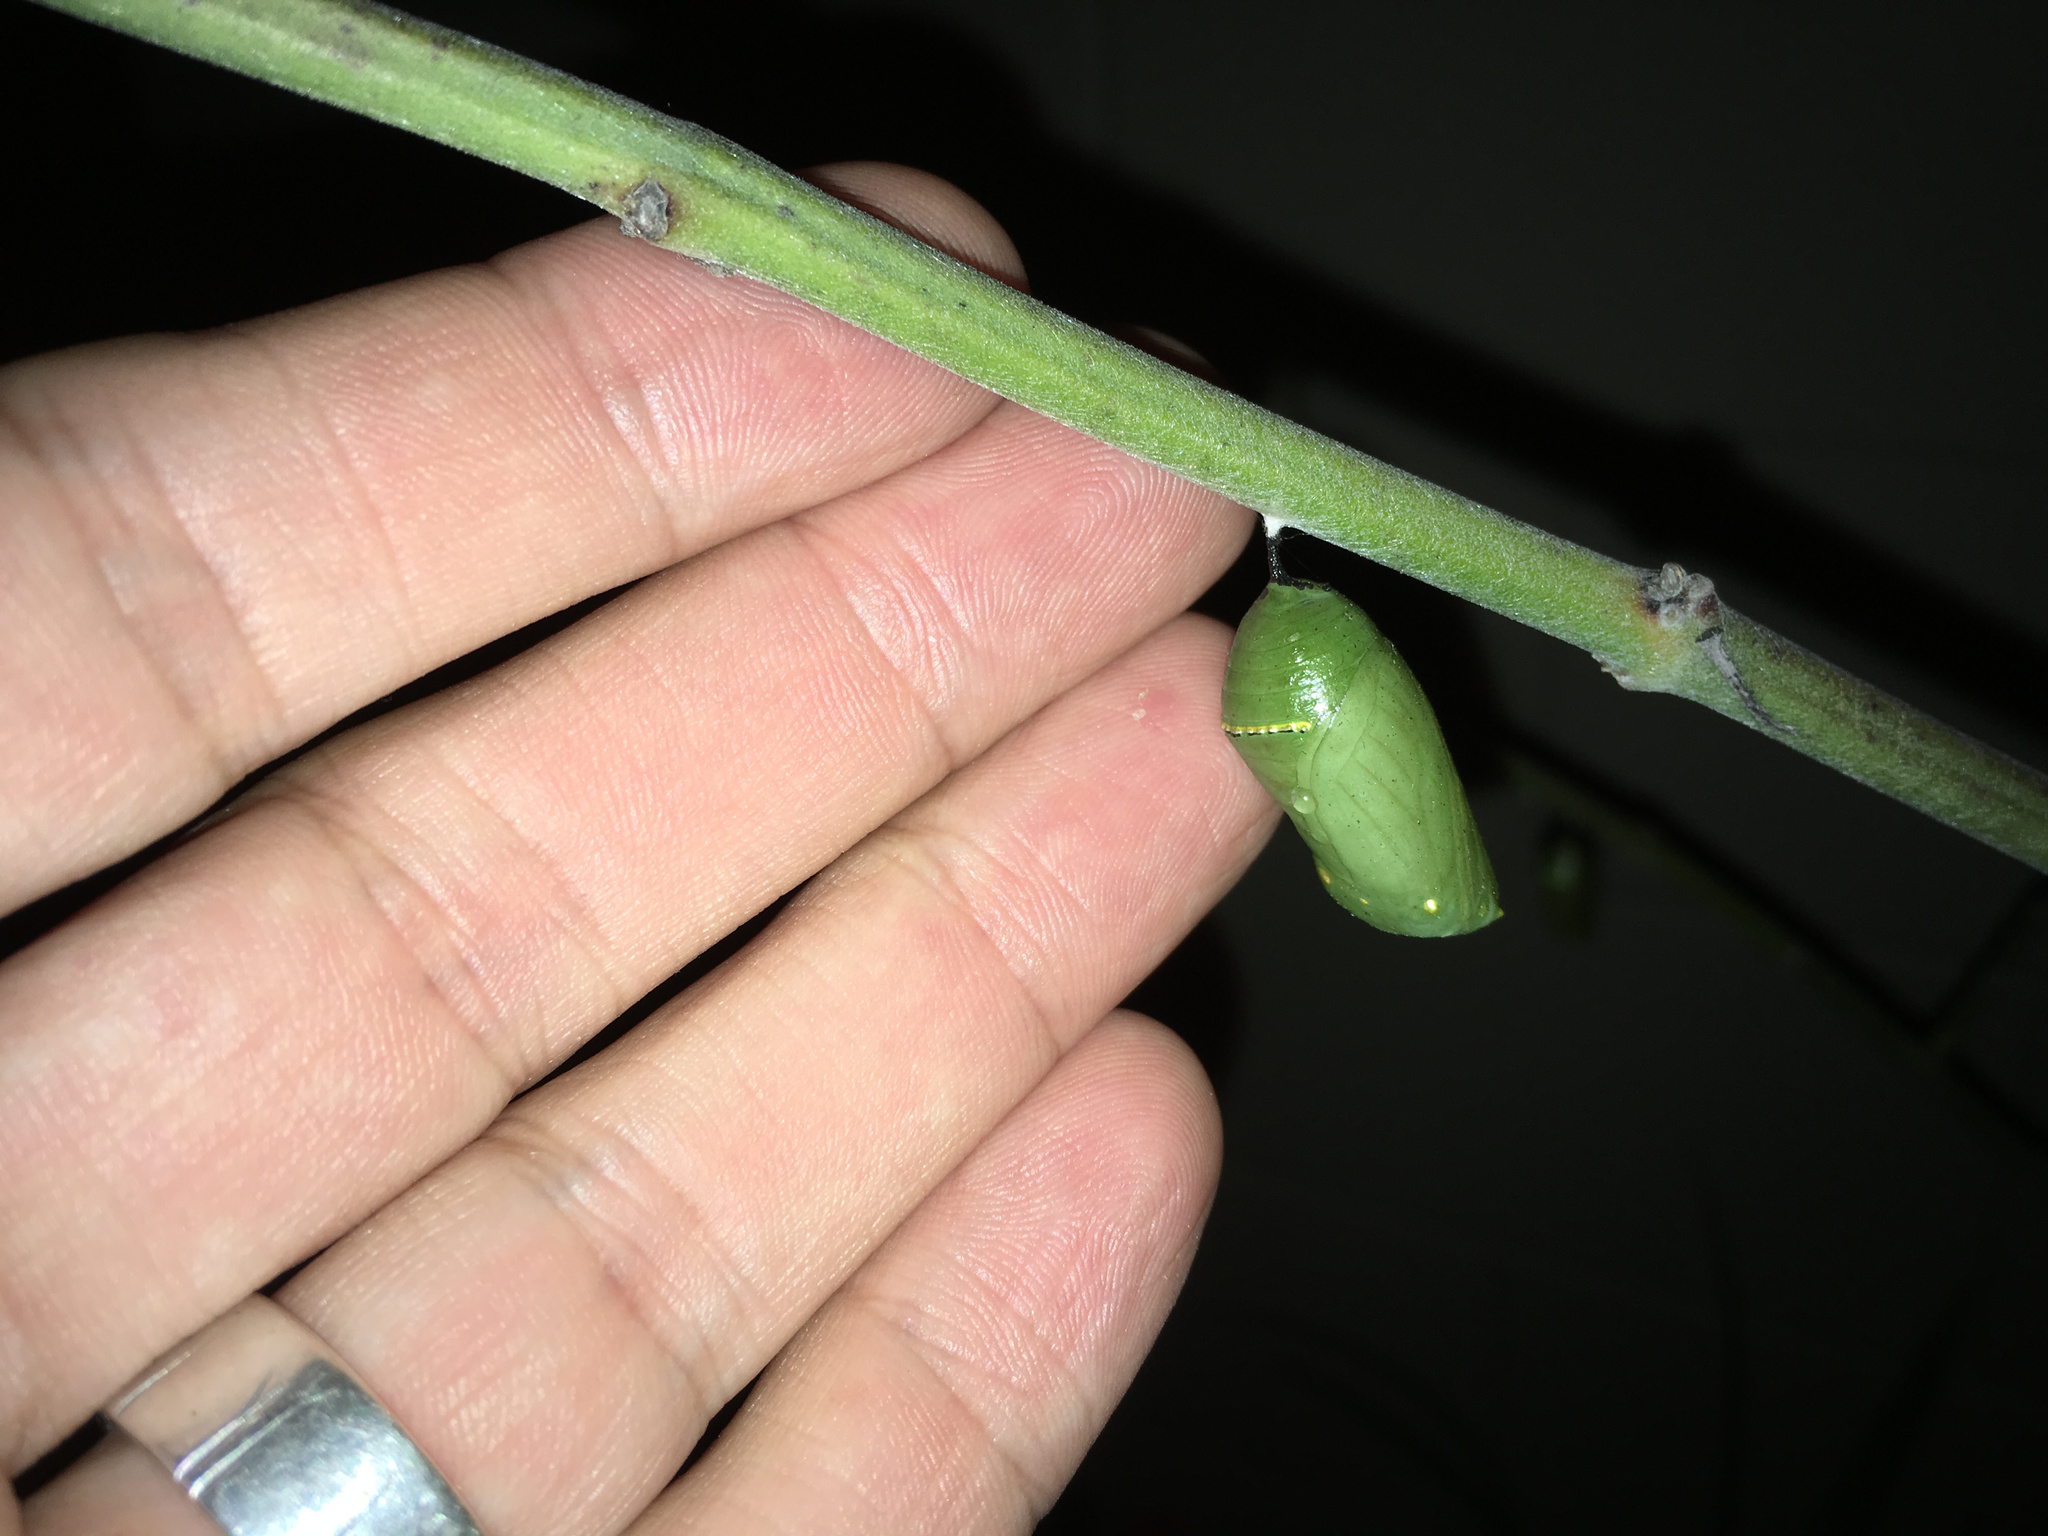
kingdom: Animalia
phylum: Arthropoda
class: Insecta
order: Lepidoptera
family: Nymphalidae
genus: Danaus
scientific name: Danaus plexippus
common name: Monarch
